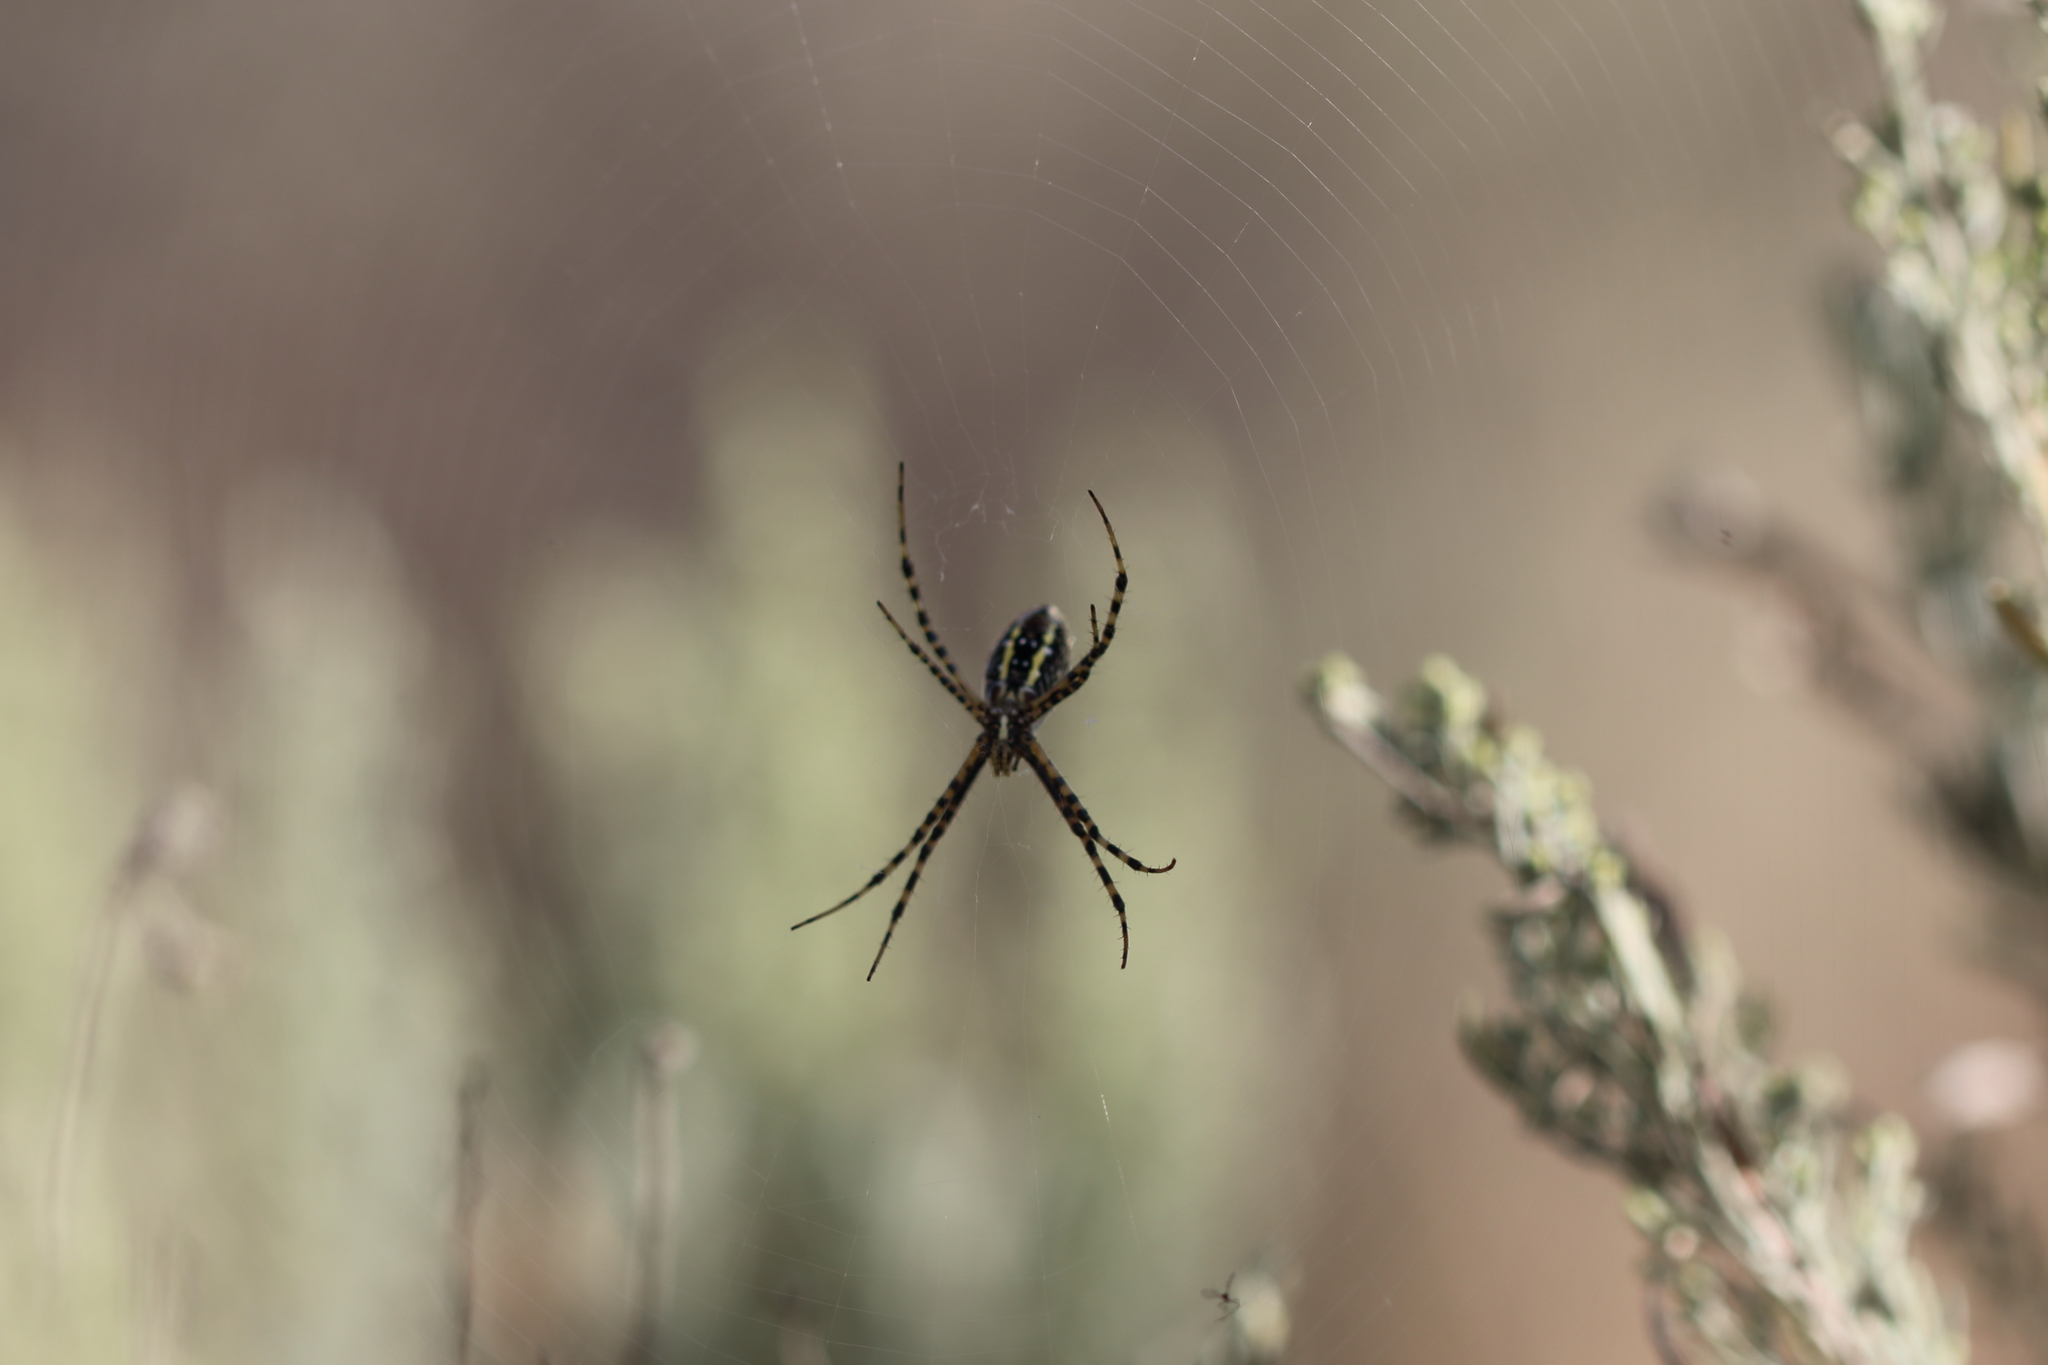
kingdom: Animalia
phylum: Arthropoda
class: Arachnida
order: Araneae
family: Araneidae
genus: Argiope
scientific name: Argiope trifasciata
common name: Banded garden spider
